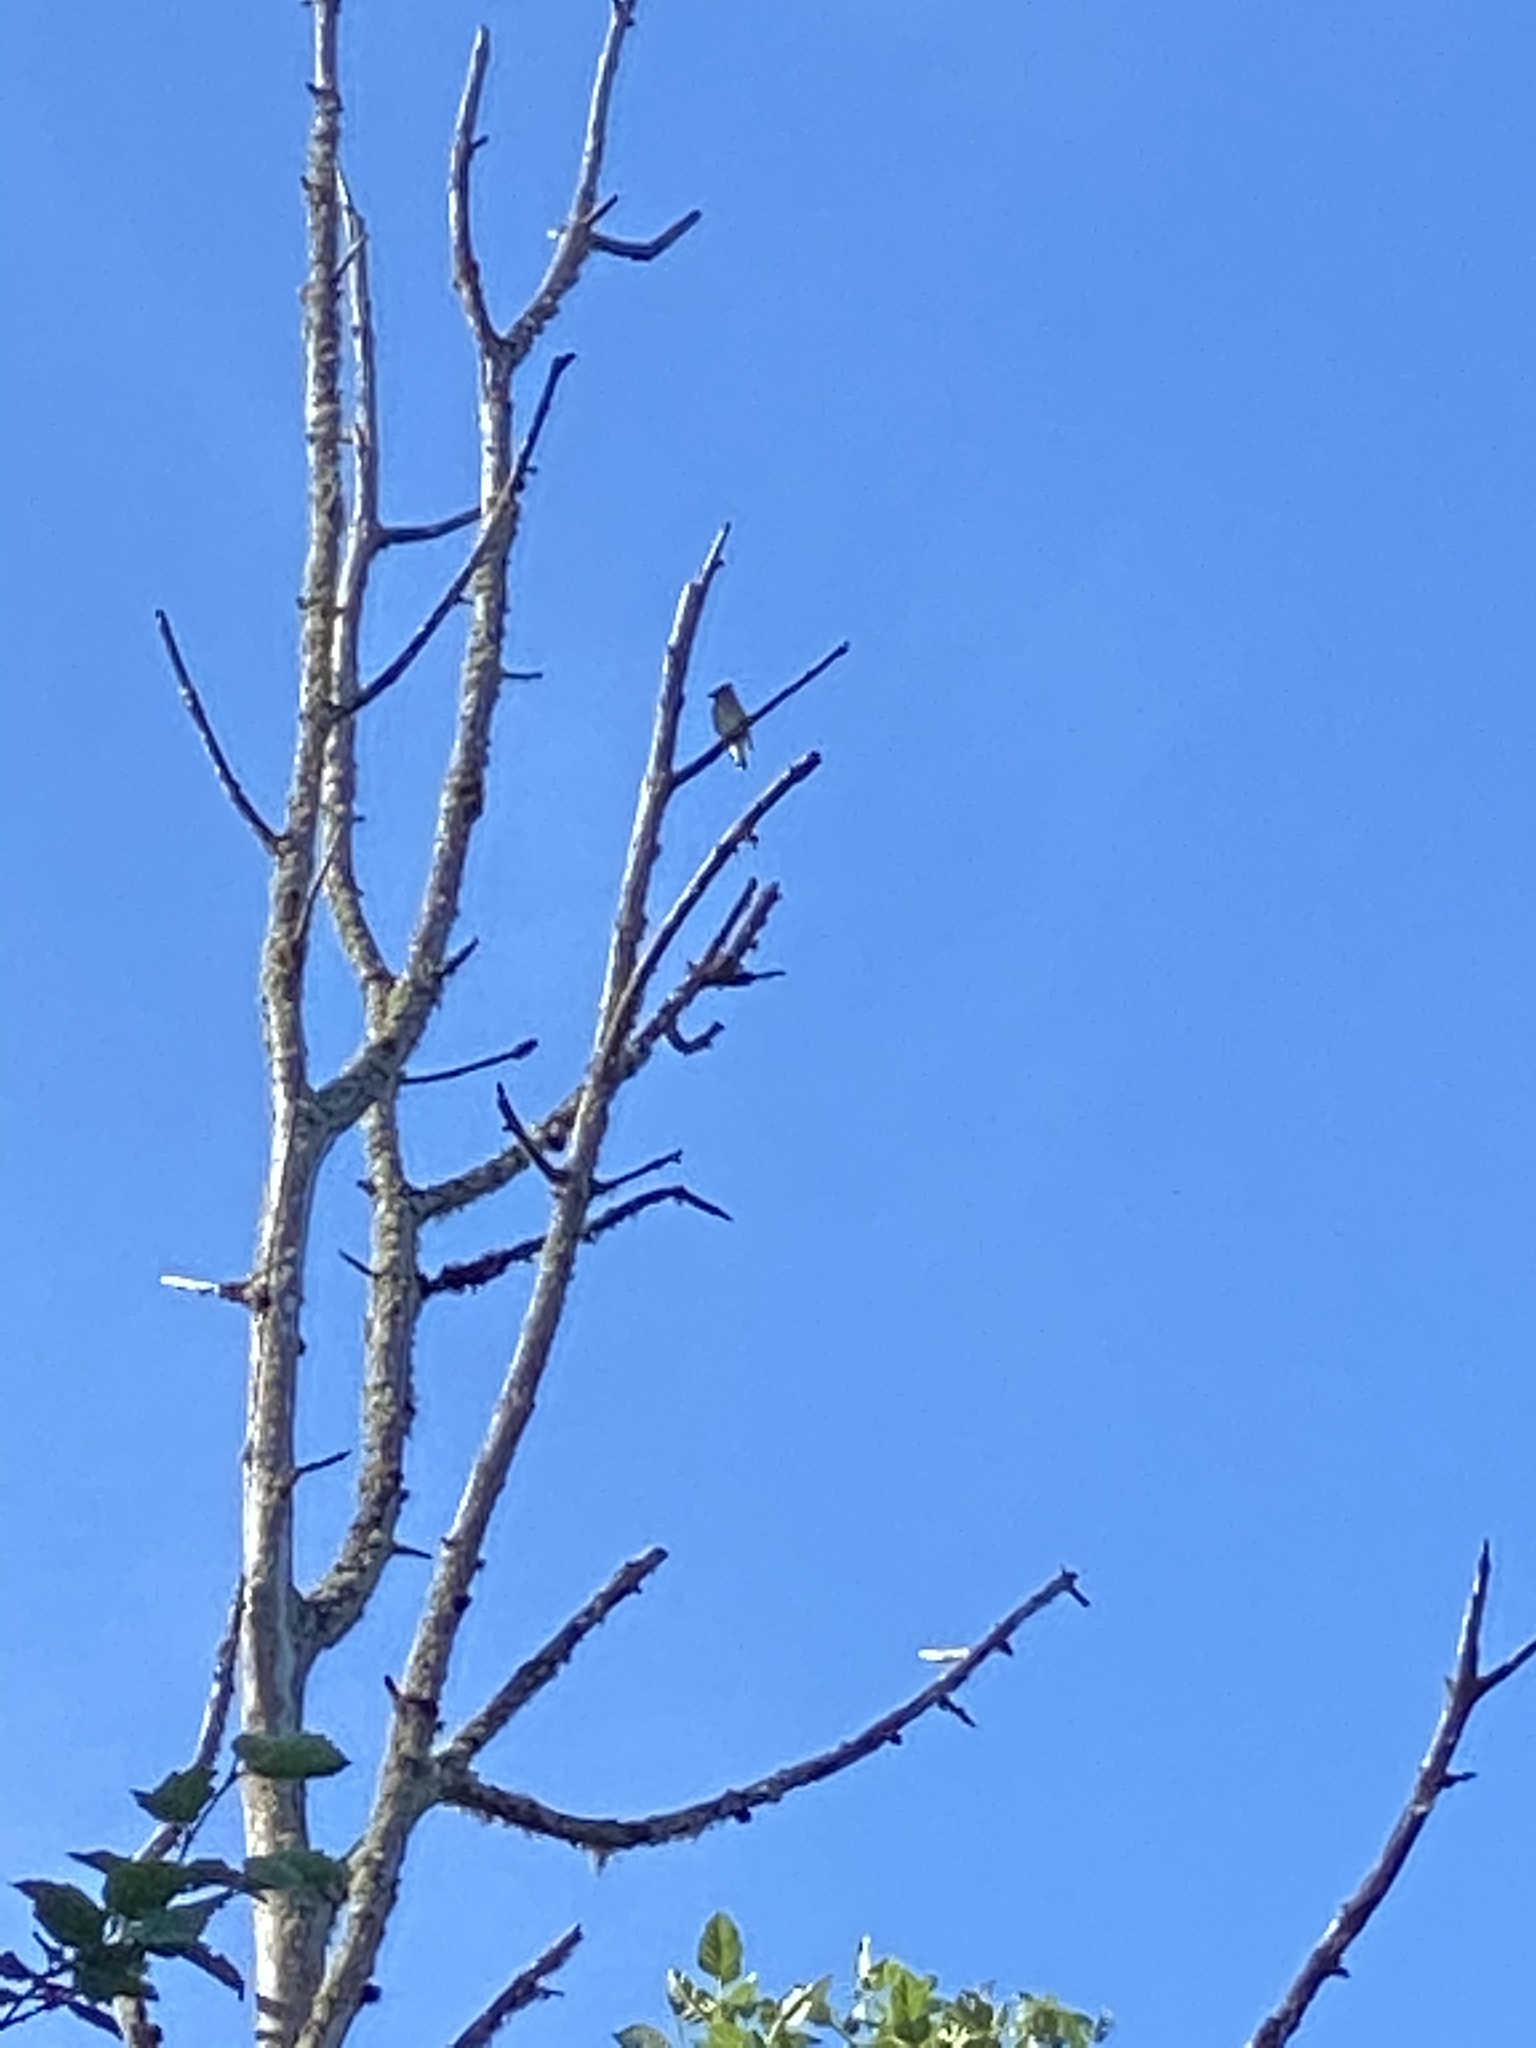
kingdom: Animalia
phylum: Chordata
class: Aves
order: Passeriformes
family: Bombycillidae
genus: Bombycilla
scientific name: Bombycilla cedrorum
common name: Cedar waxwing
